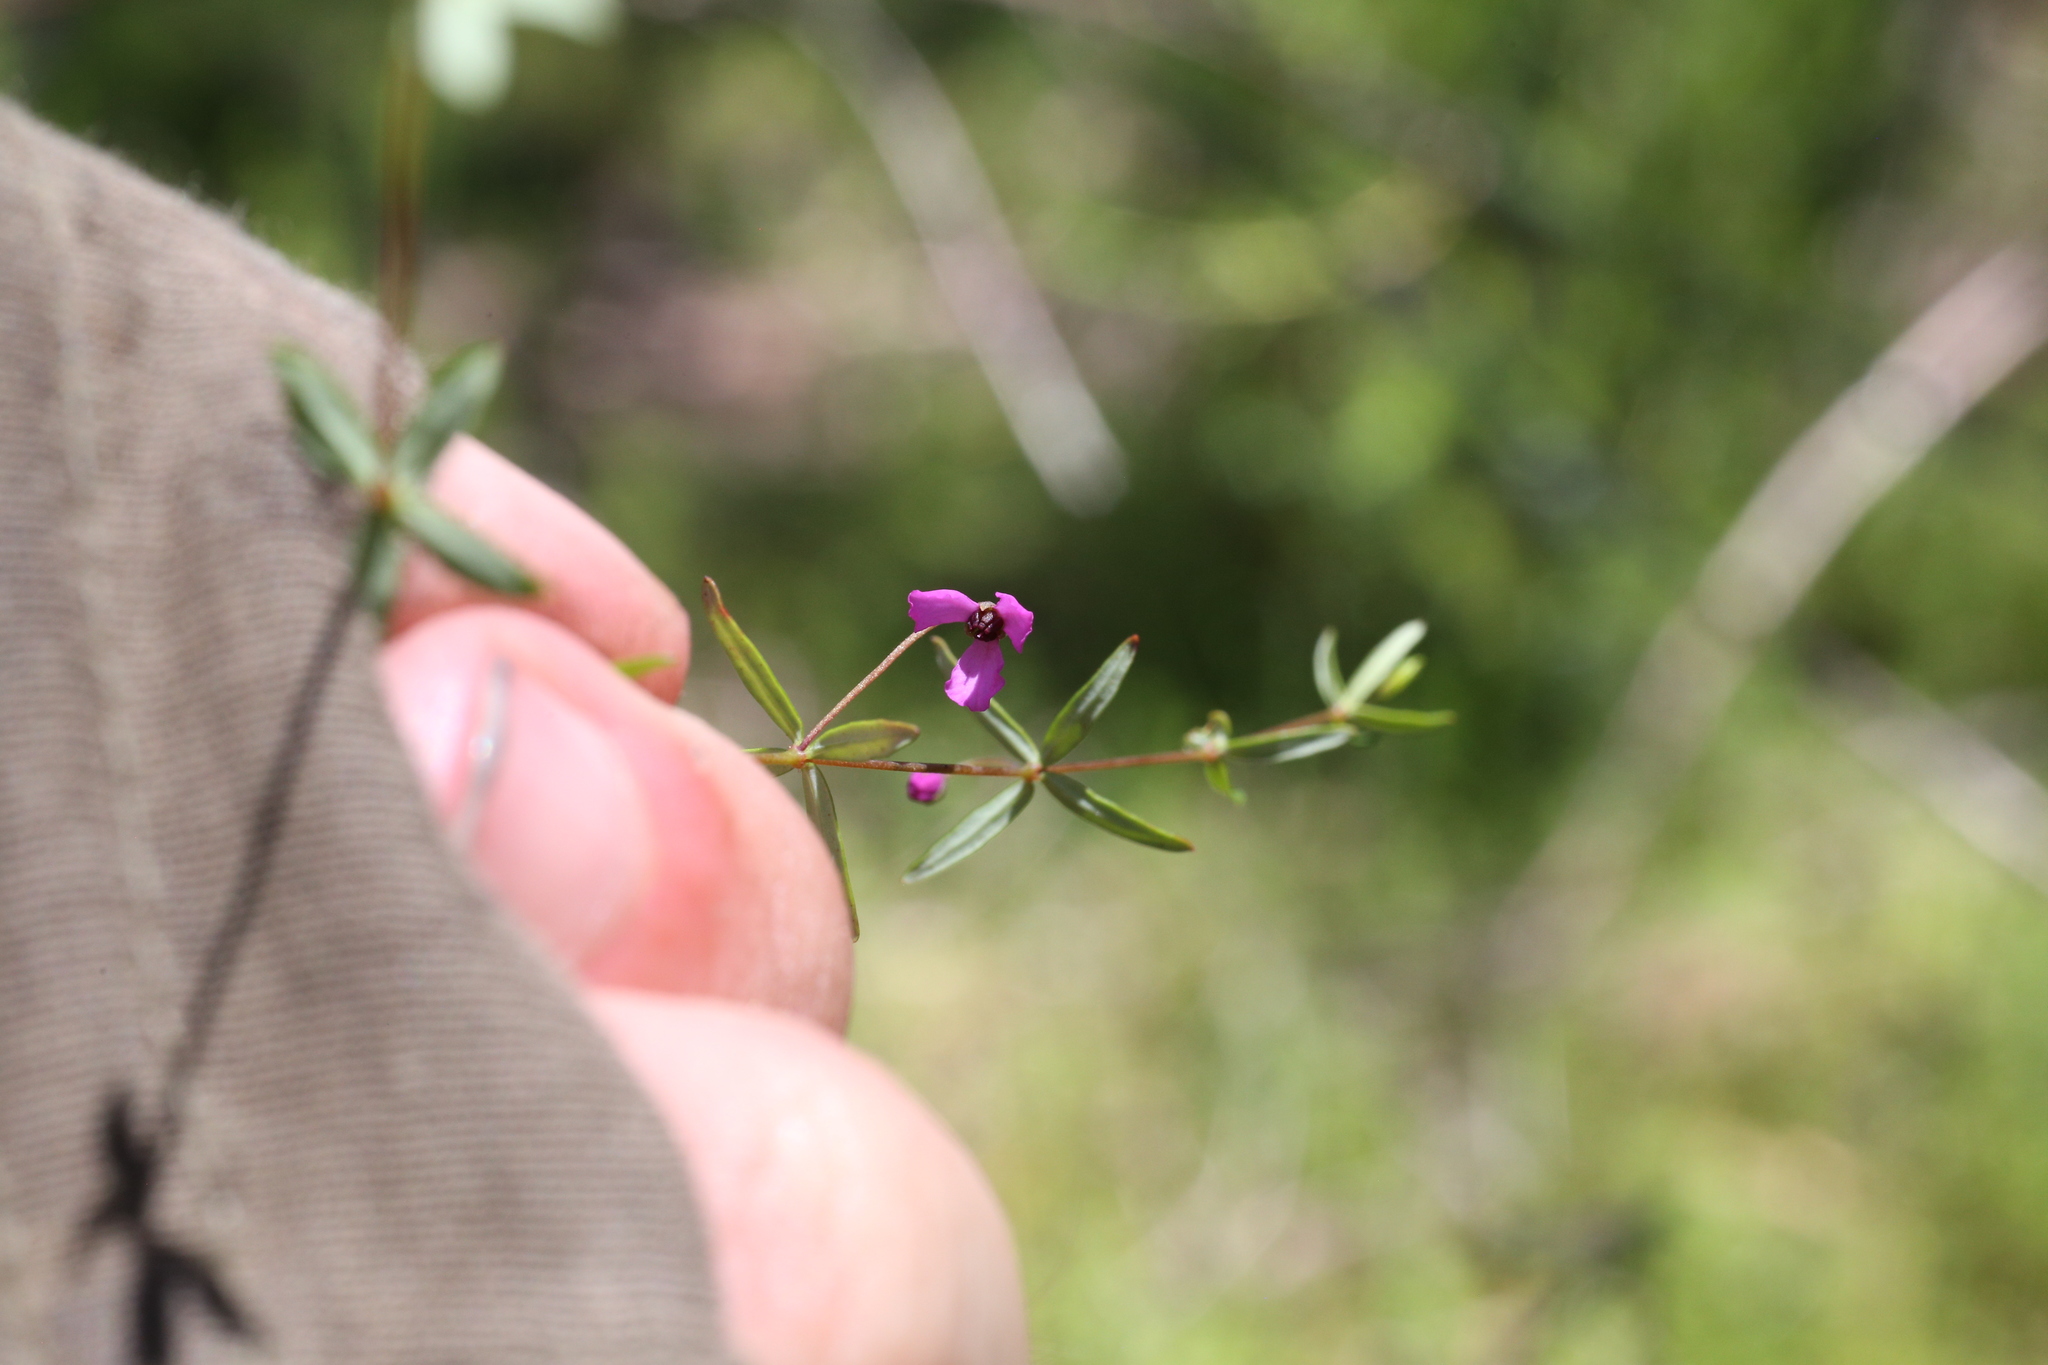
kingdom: Plantae
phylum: Tracheophyta
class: Magnoliopsida
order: Oxalidales
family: Elaeocarpaceae
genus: Tetratheca
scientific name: Tetratheca filiformis
